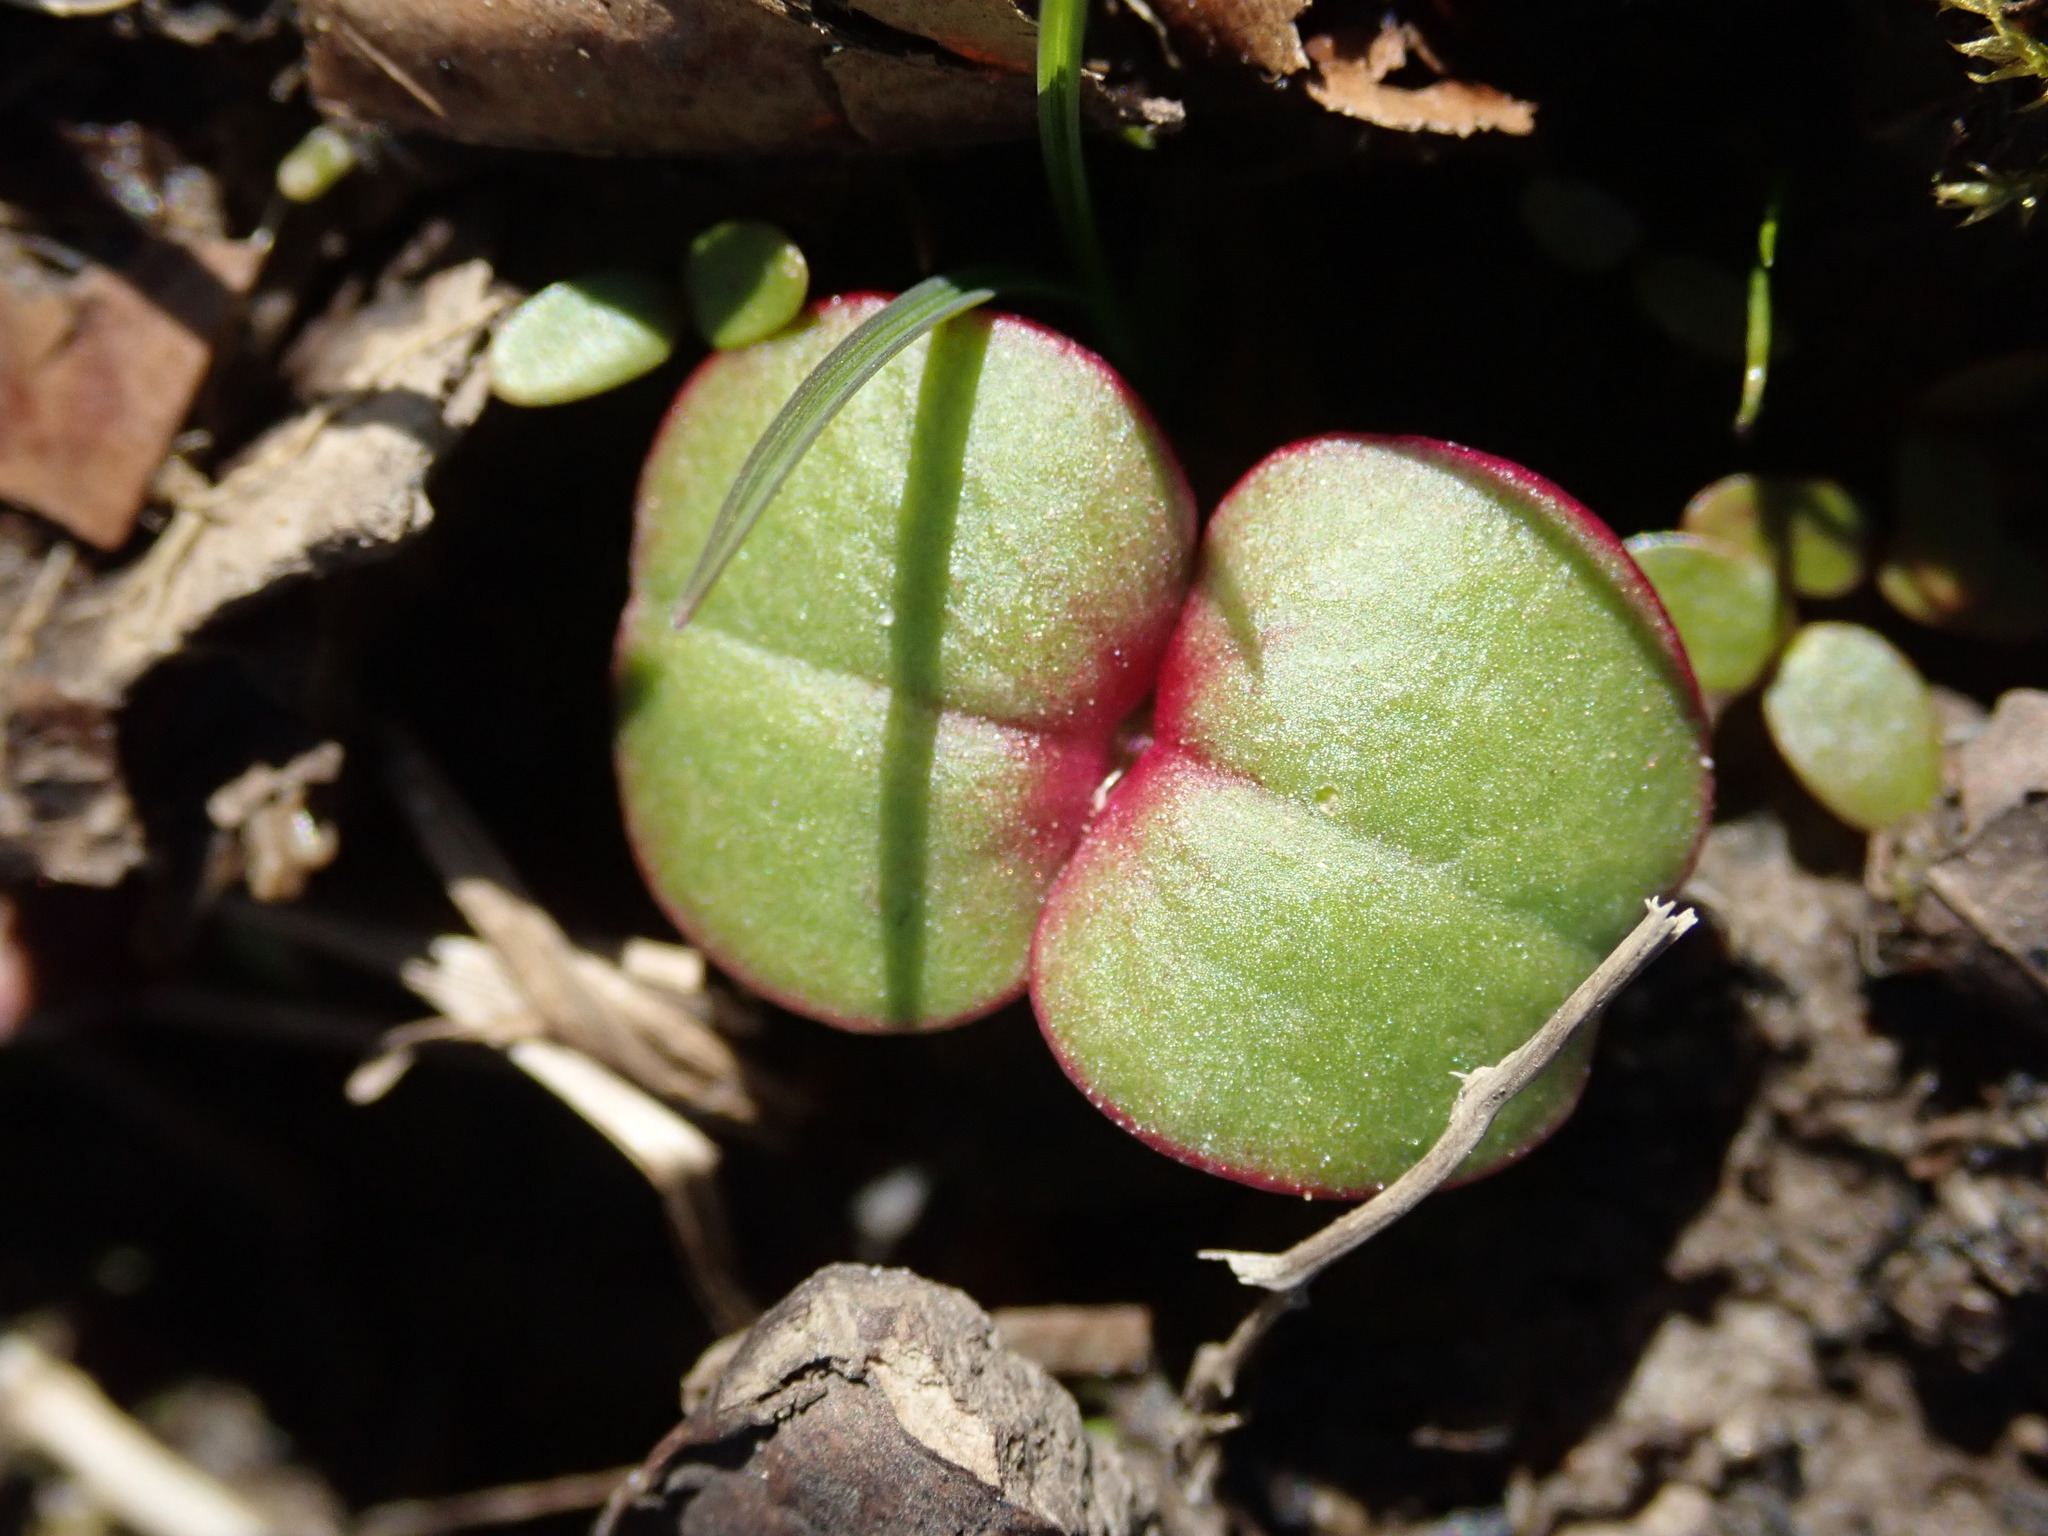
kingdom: Plantae
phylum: Tracheophyta
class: Magnoliopsida
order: Ericales
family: Balsaminaceae
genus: Impatiens
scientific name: Impatiens glandulifera
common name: Himalayan balsam
